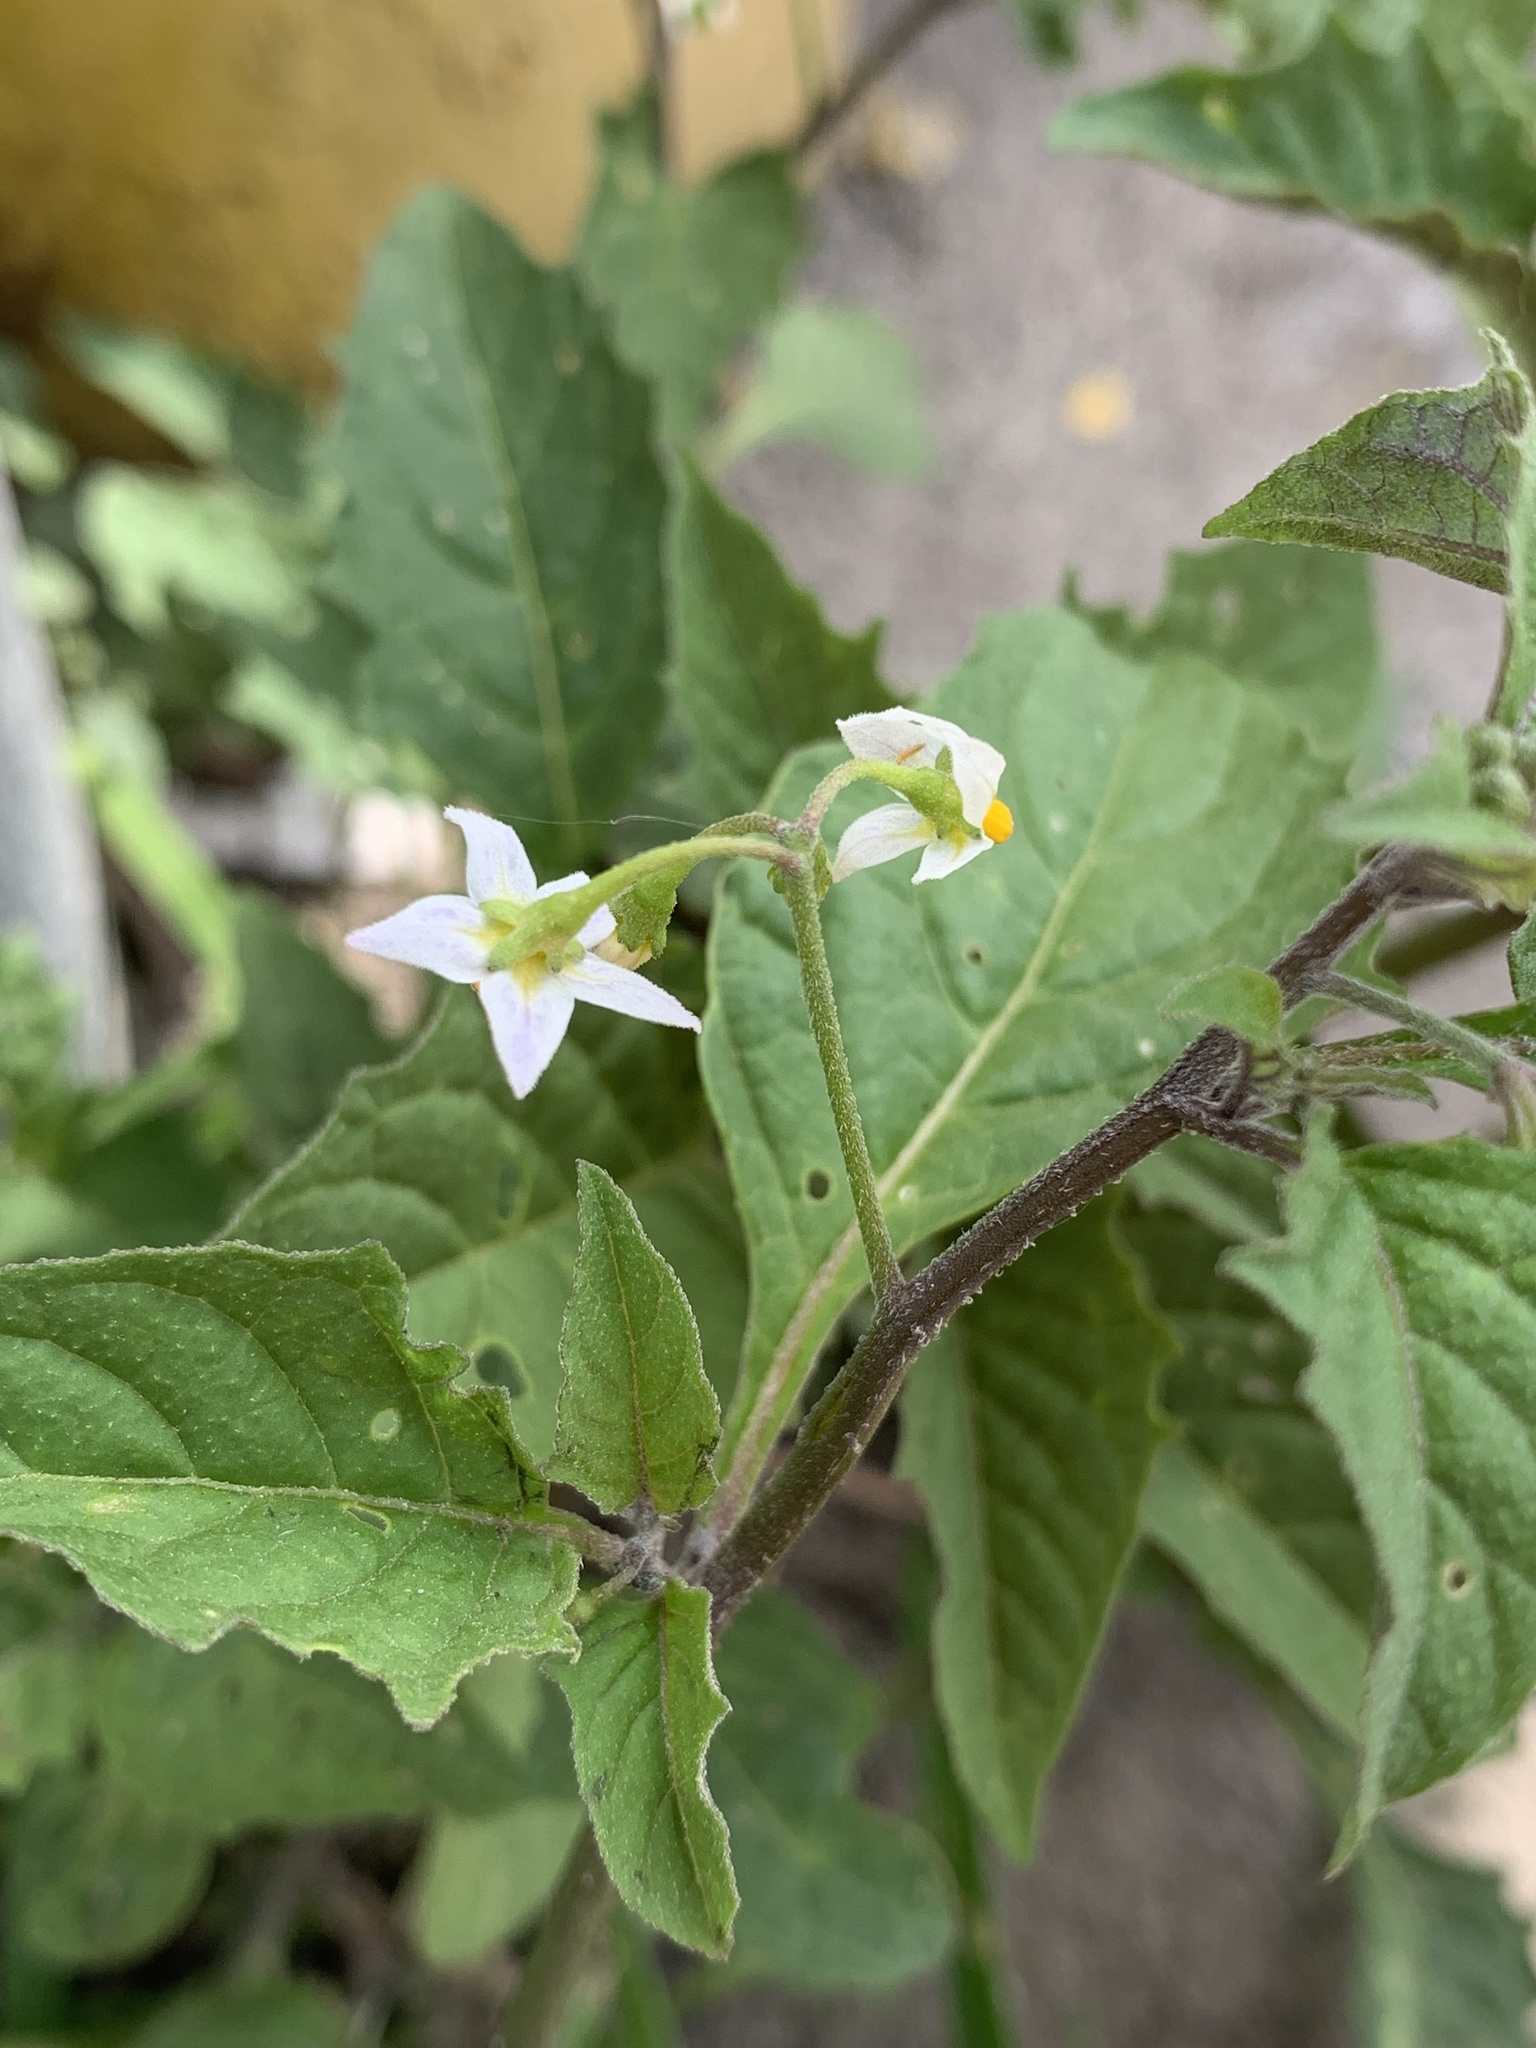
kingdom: Plantae
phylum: Tracheophyta
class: Magnoliopsida
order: Solanales
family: Solanaceae
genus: Solanum
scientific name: Solanum emulans
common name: Eastern black nightshade
